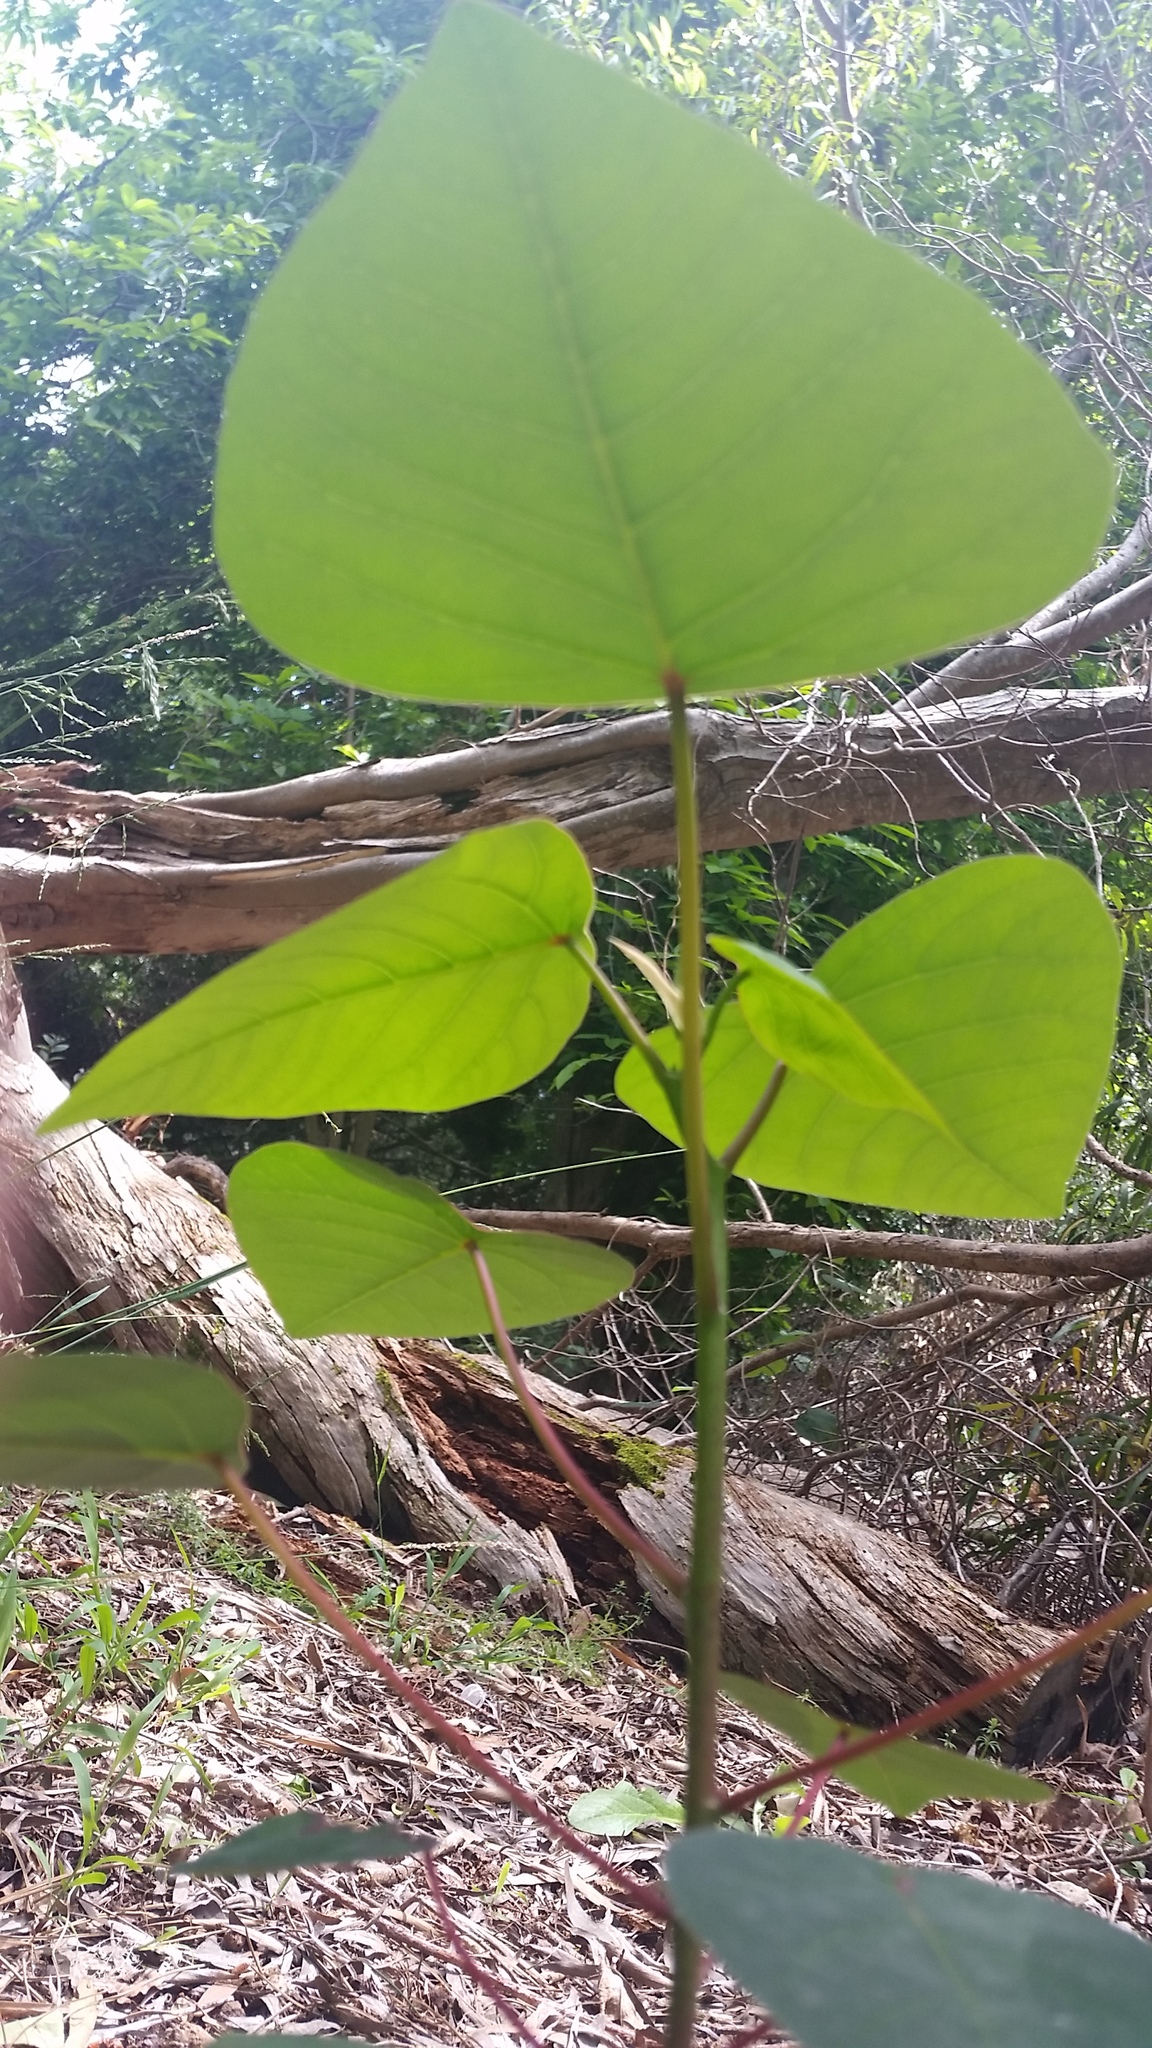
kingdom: Plantae
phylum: Tracheophyta
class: Magnoliopsida
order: Malpighiales
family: Euphorbiaceae
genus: Homalanthus
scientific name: Homalanthus populifolius
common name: Queensland poplar
